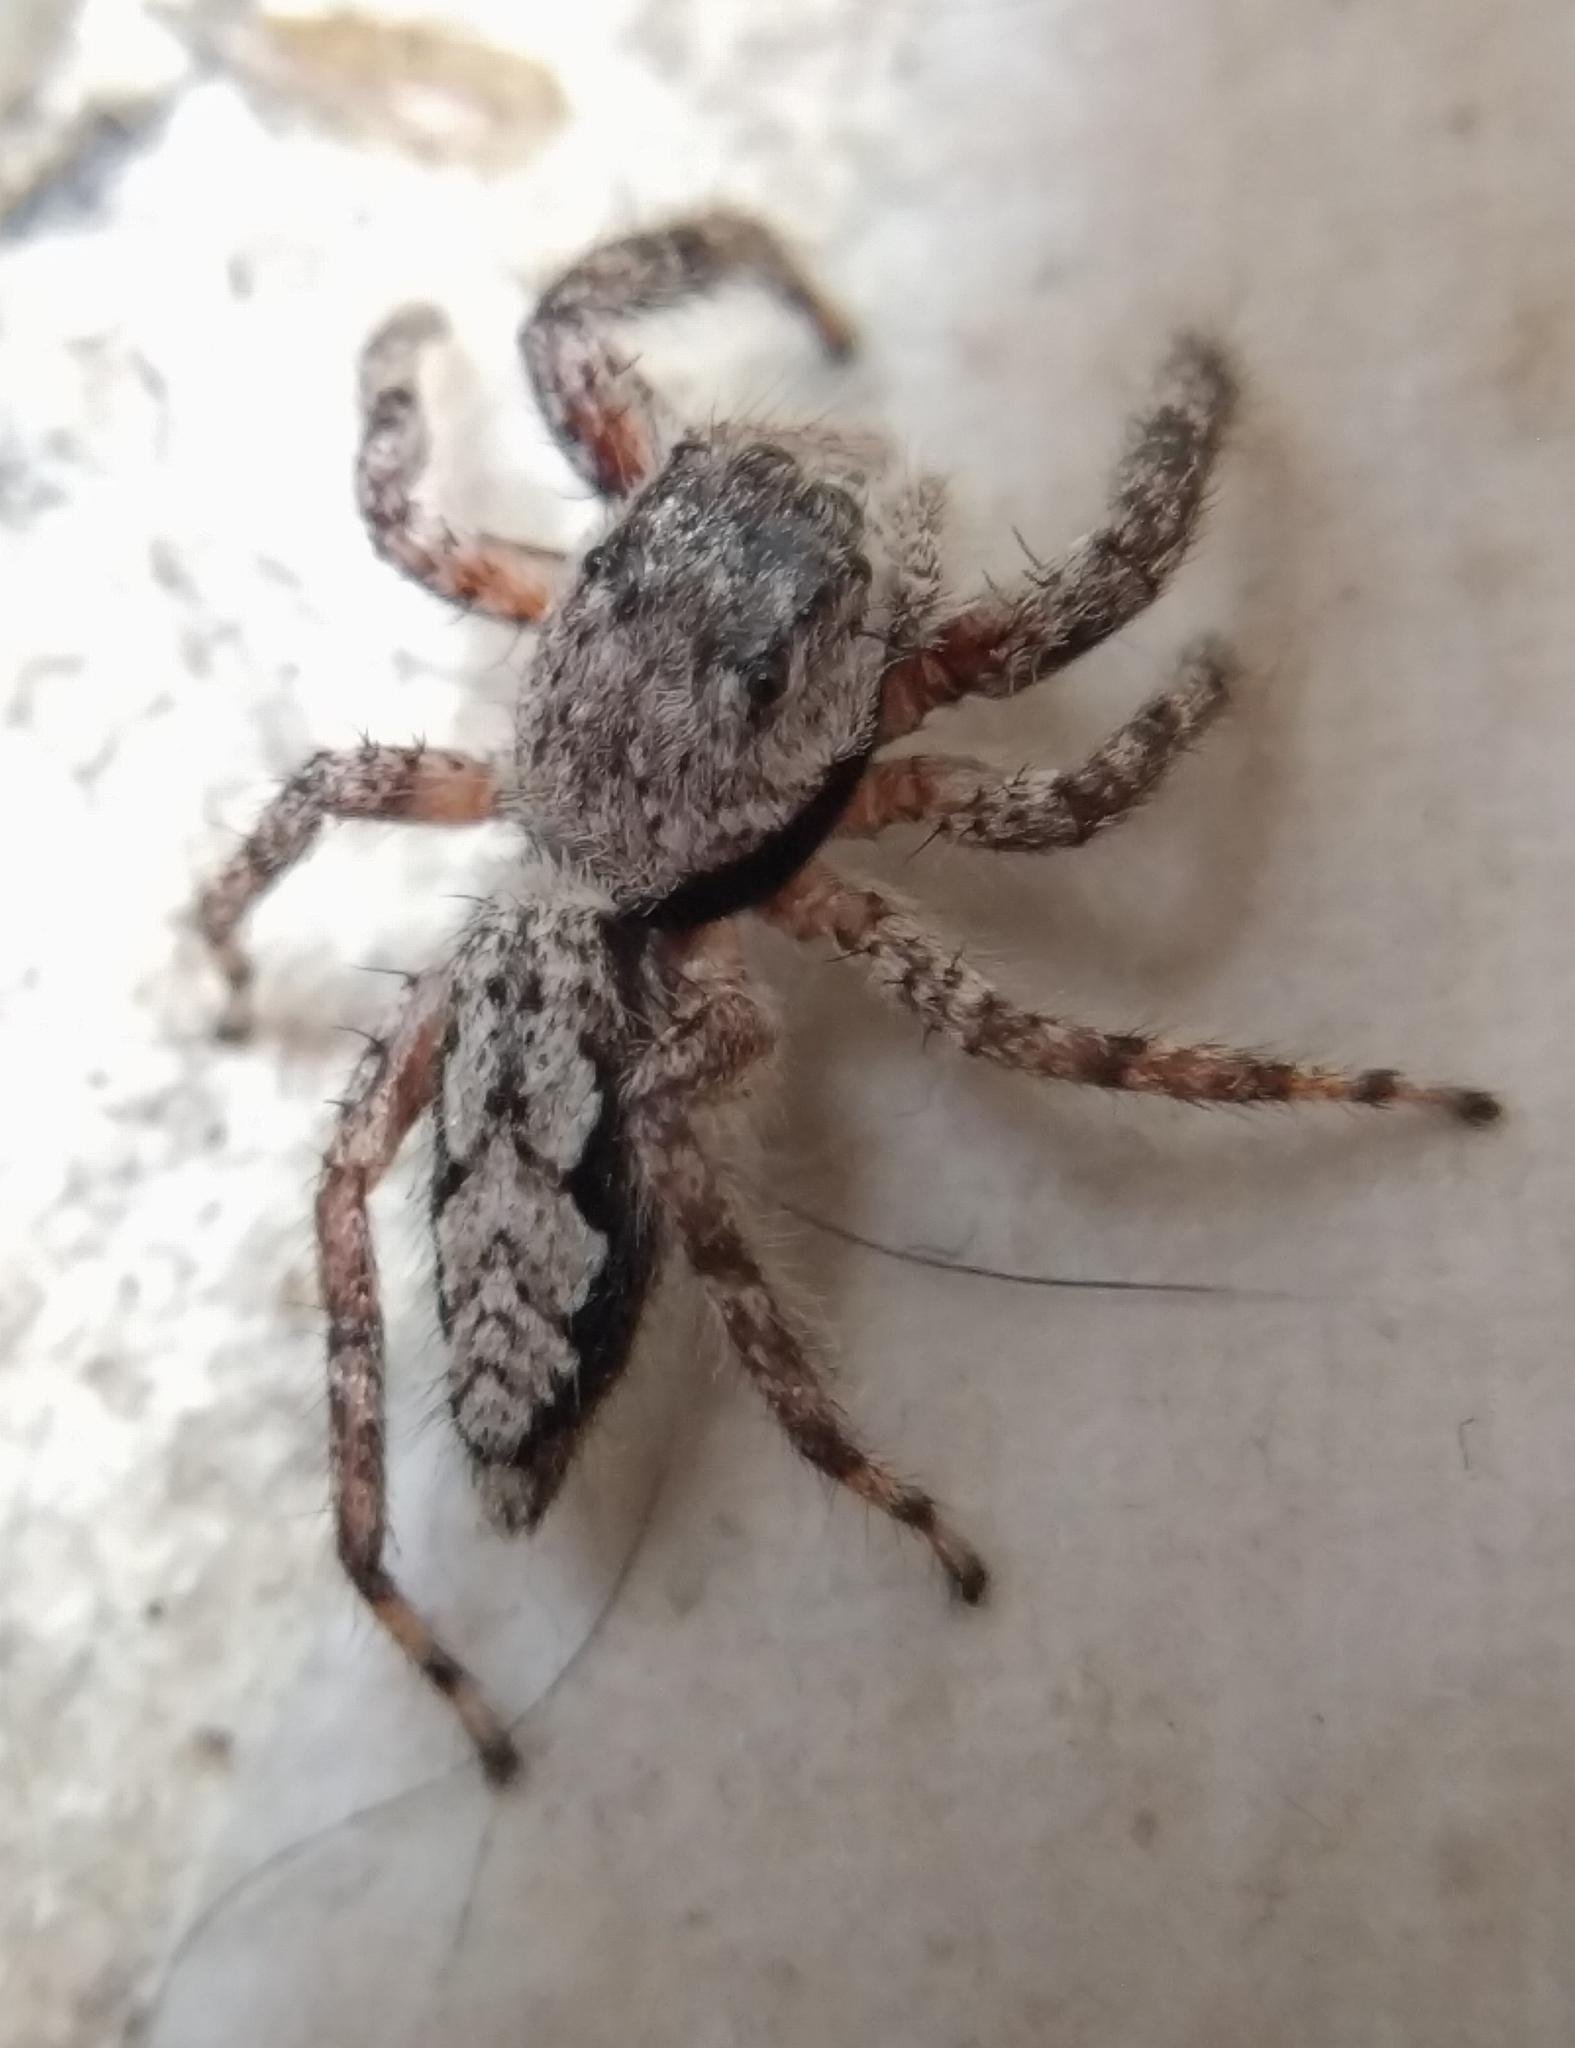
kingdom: Animalia
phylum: Arthropoda
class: Arachnida
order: Araneae
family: Salticidae
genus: Platycryptus
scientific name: Platycryptus undatus
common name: Tan jumping spider
